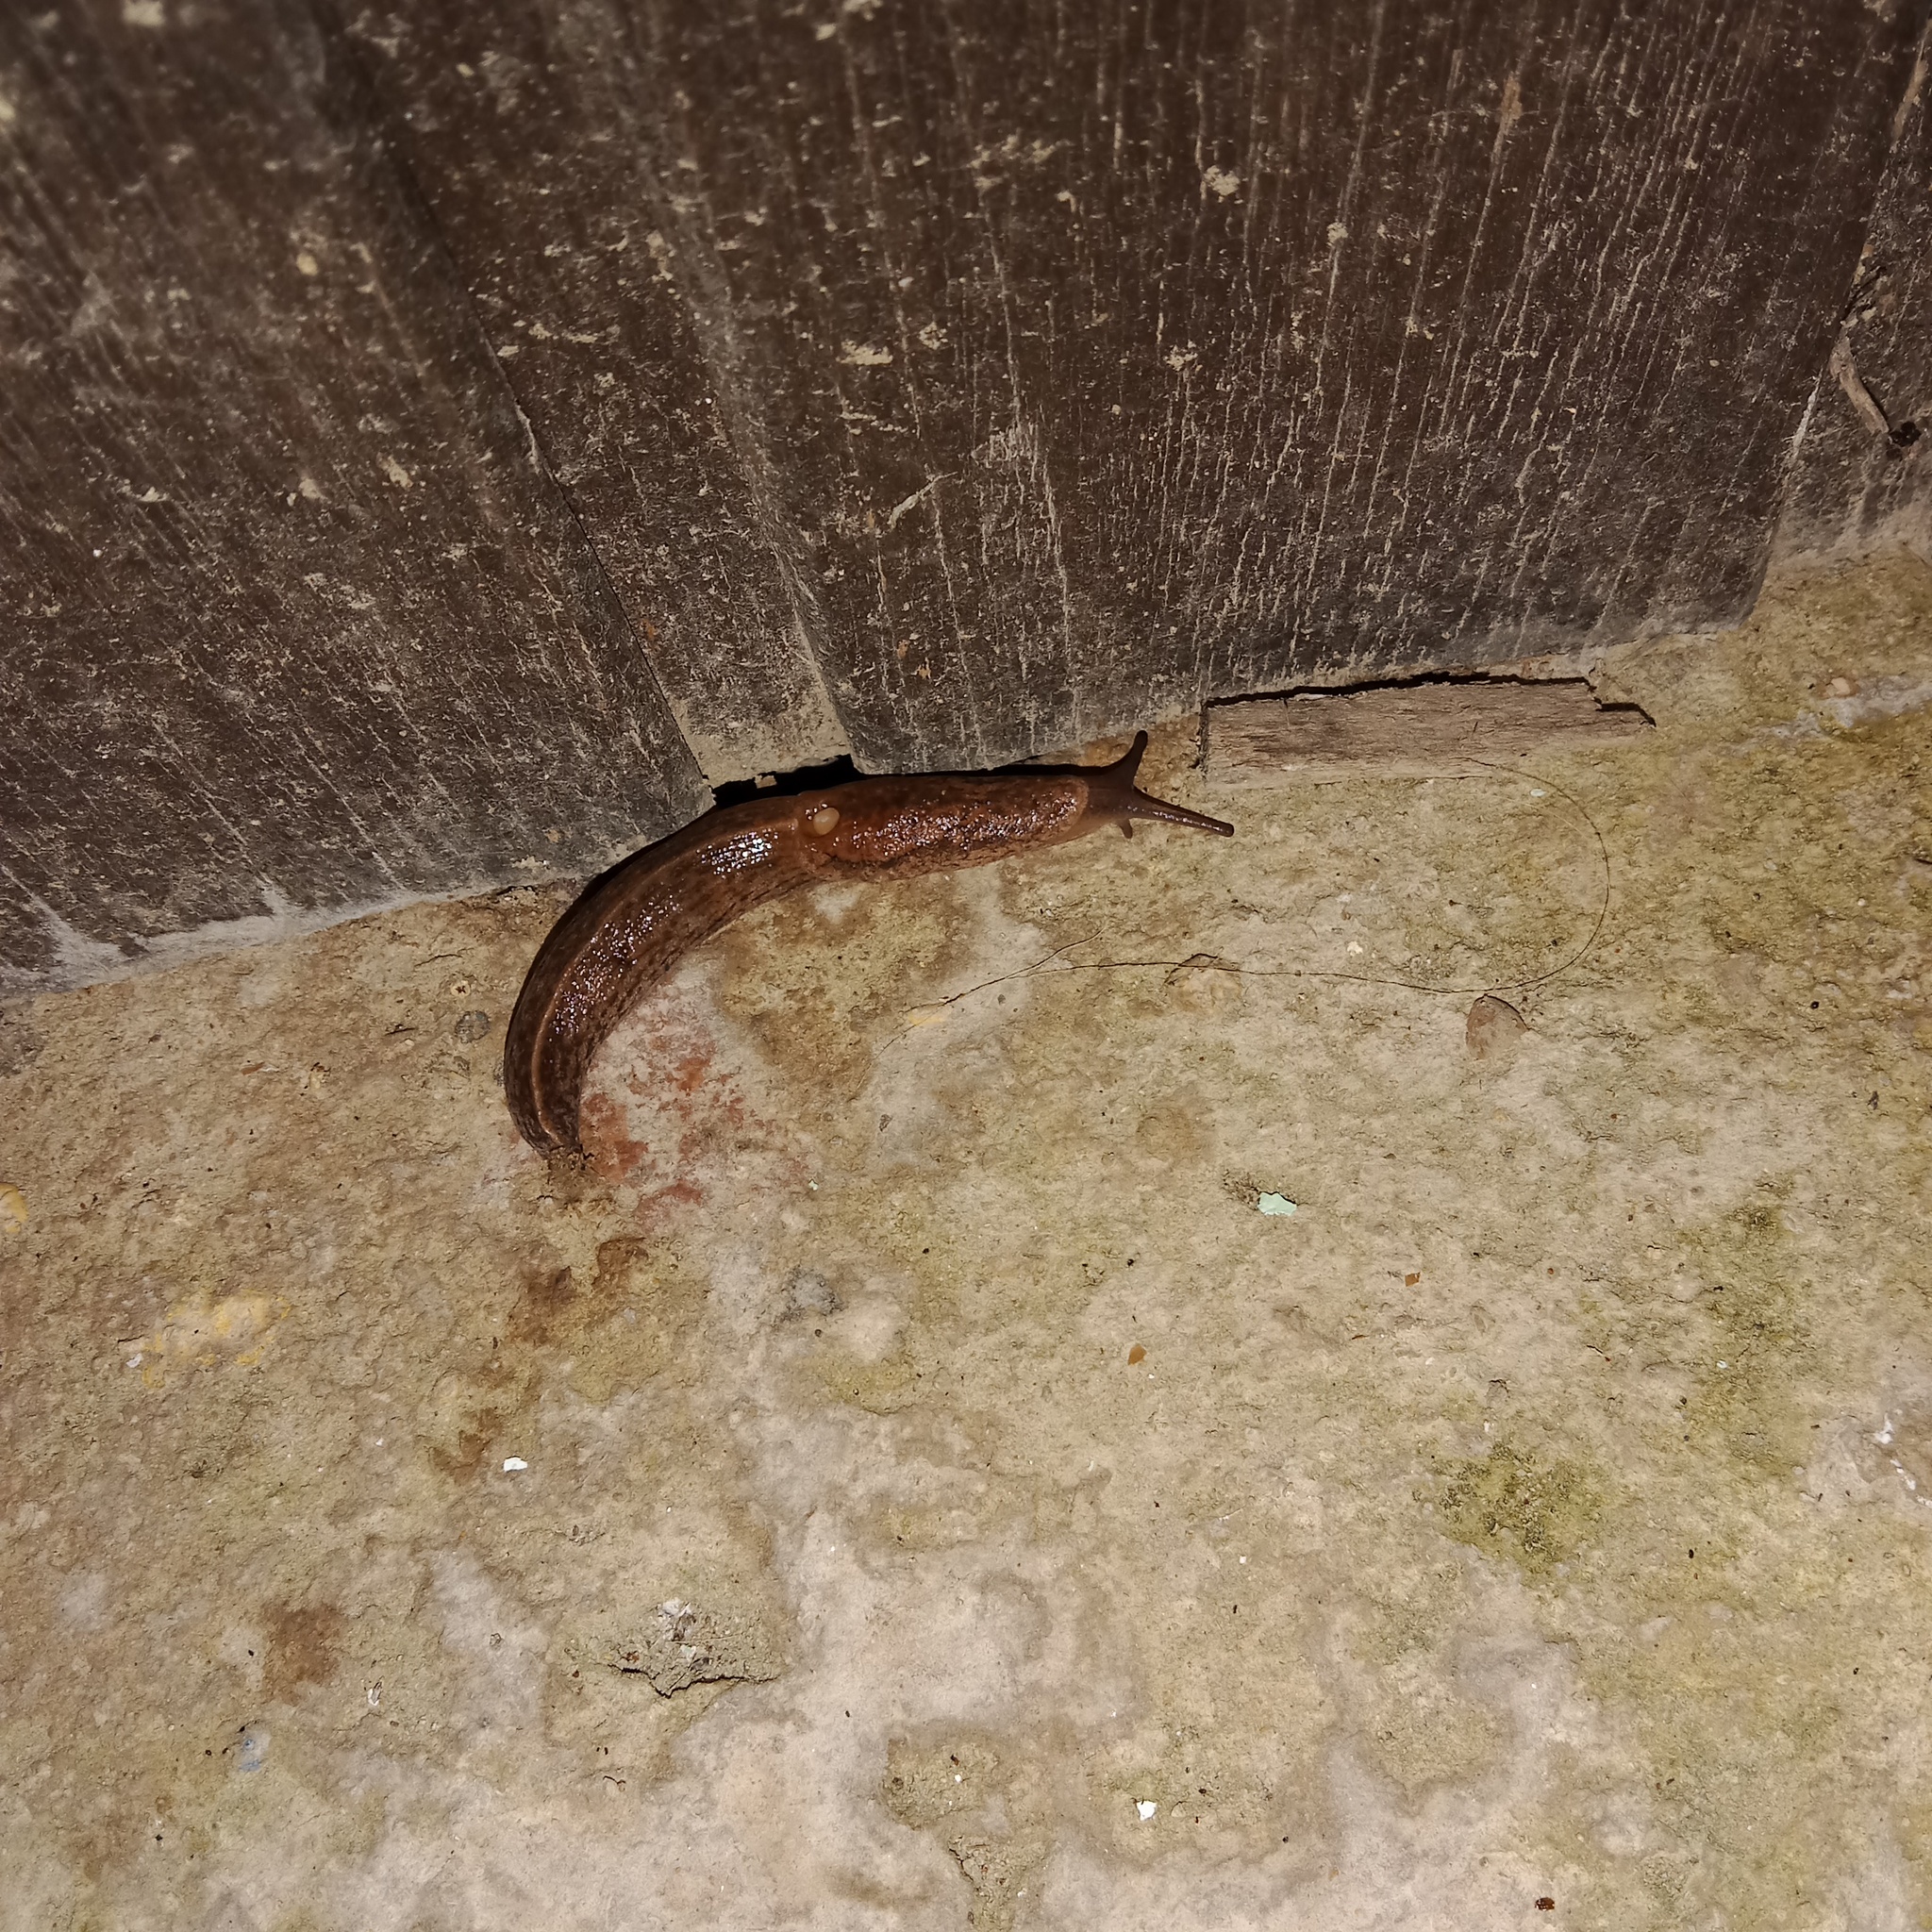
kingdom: Animalia
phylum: Mollusca
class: Gastropoda
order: Stylommatophora
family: Milacidae
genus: Tandonia
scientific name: Tandonia kusceri
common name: Keeled slug
